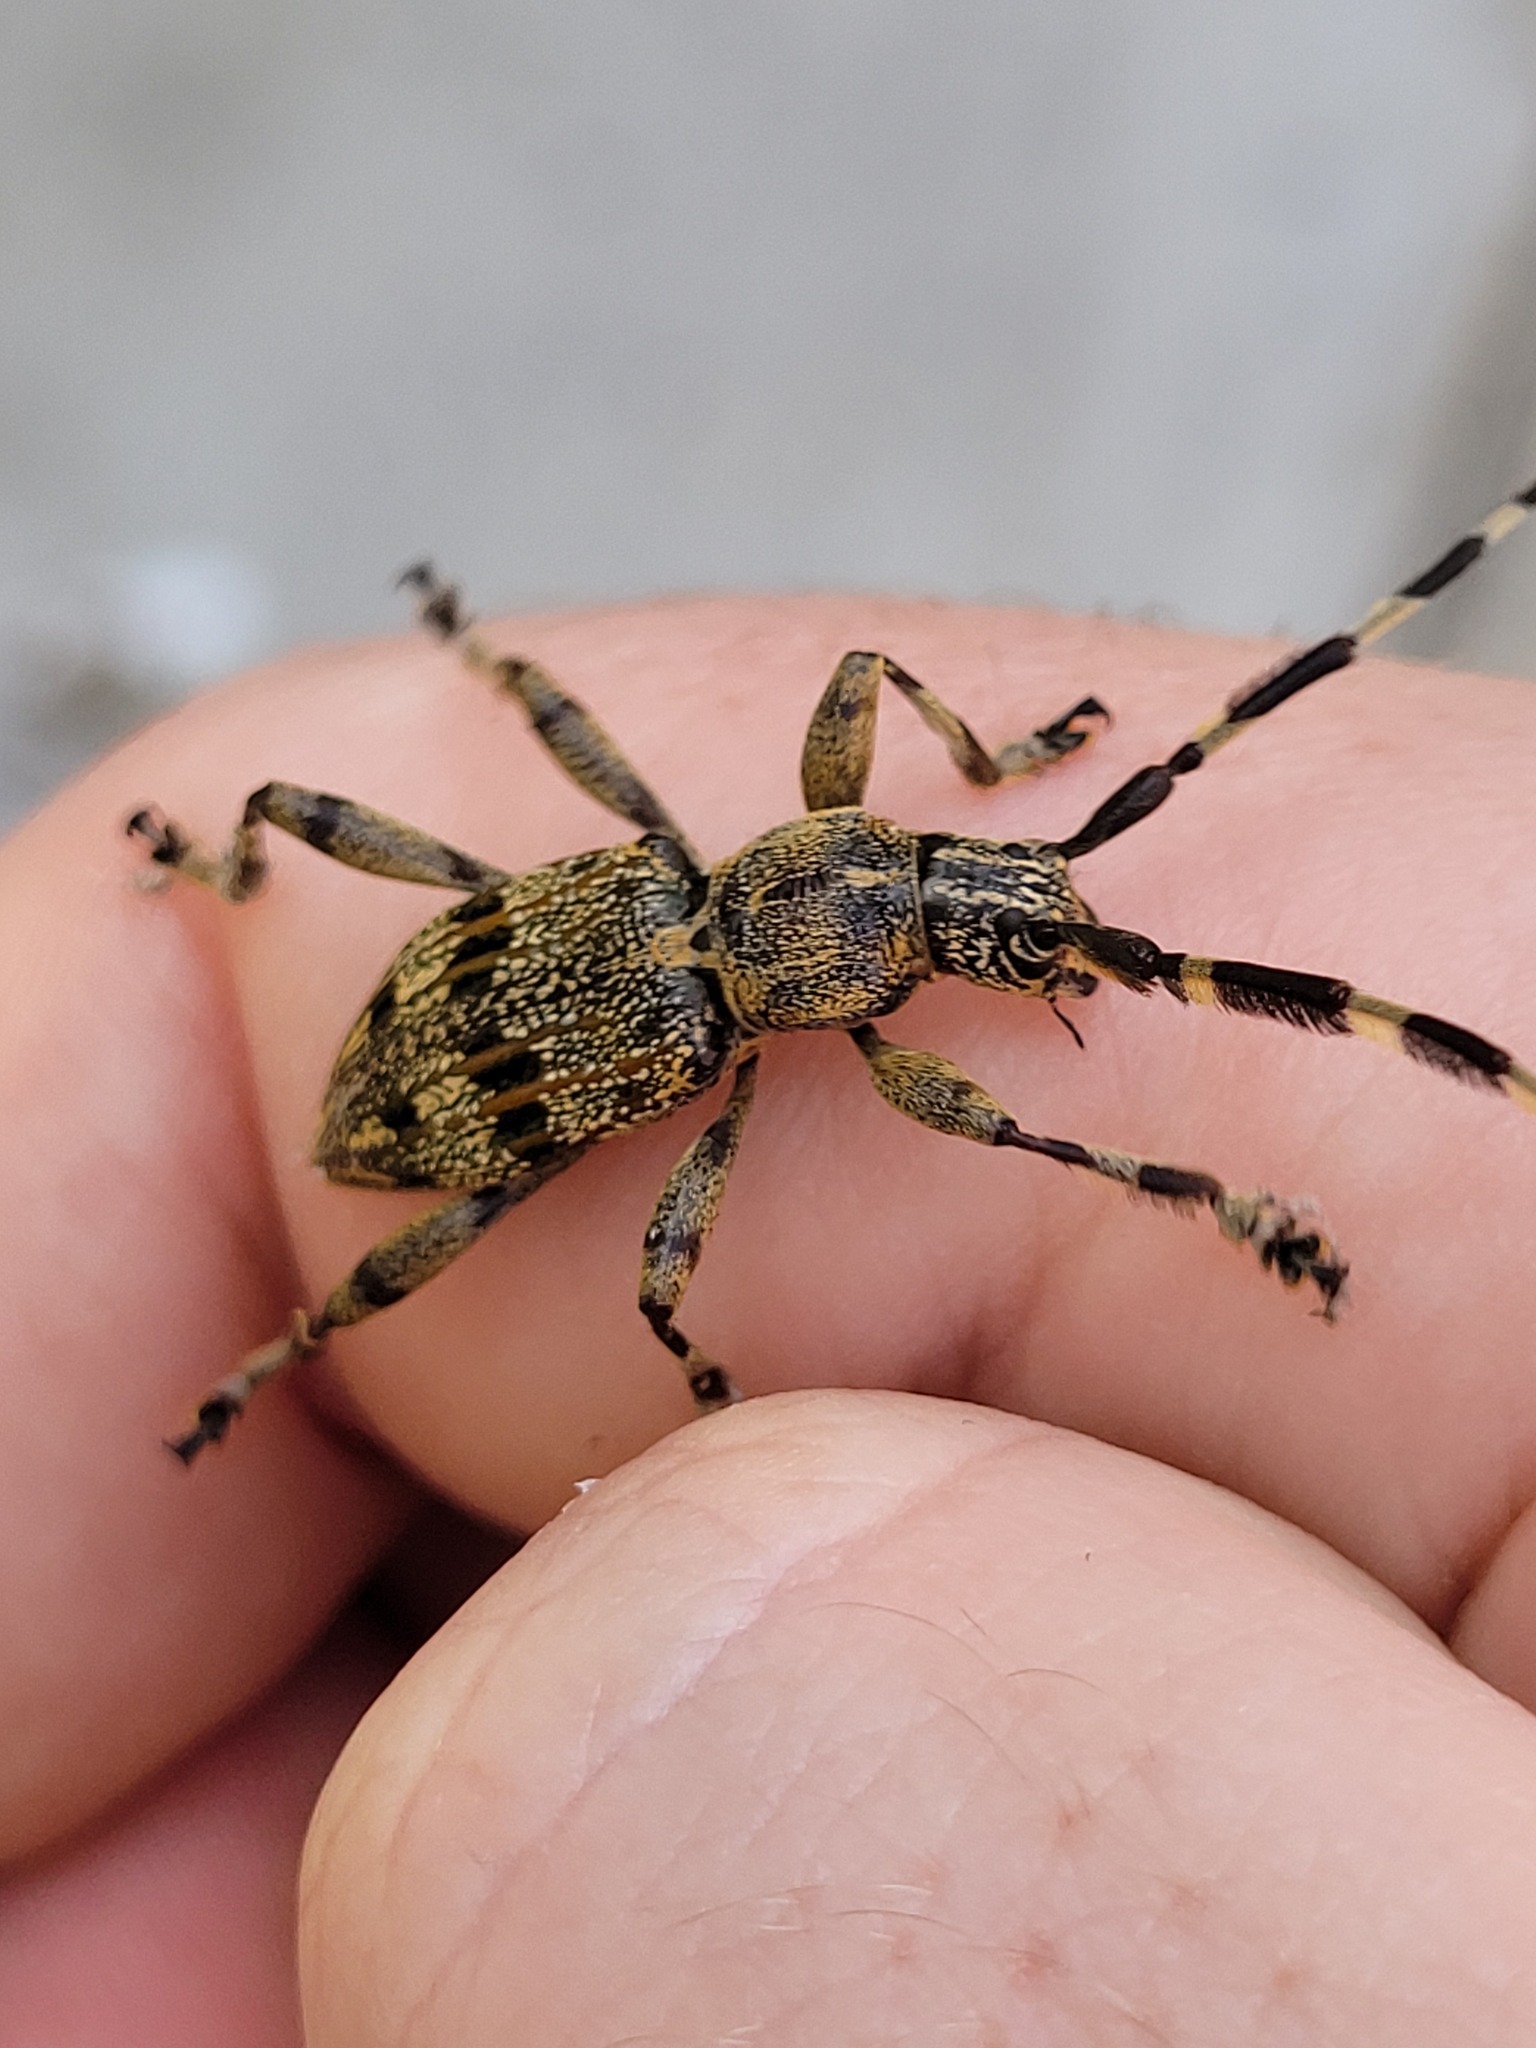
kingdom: Animalia
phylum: Arthropoda
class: Insecta
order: Coleoptera
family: Cerambycidae
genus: Hexatricha
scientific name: Hexatricha pulverulenta
